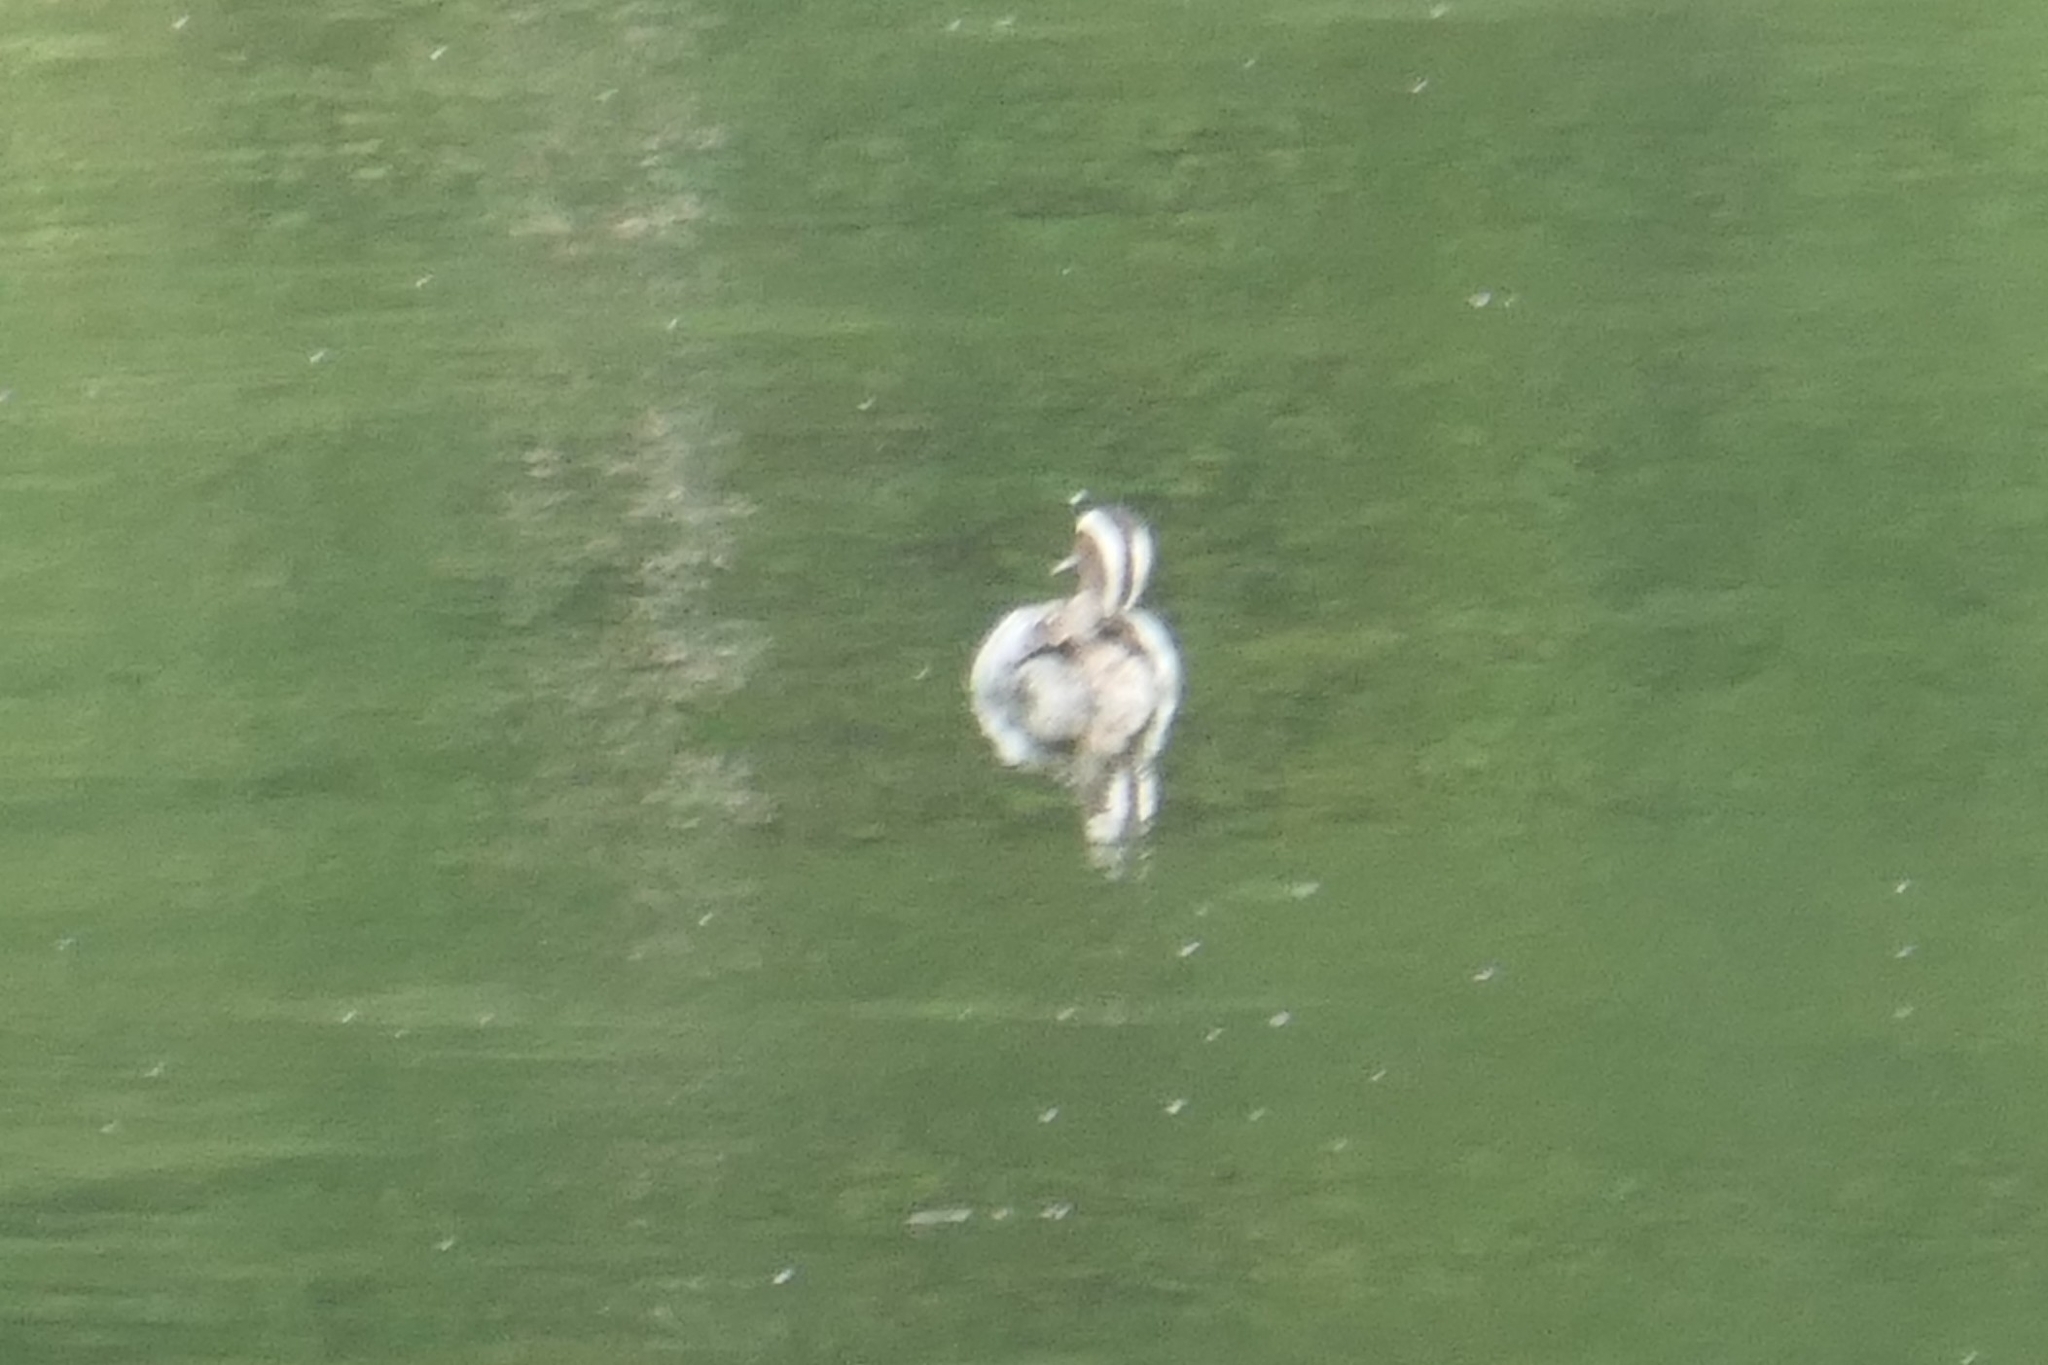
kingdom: Animalia
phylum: Chordata
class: Aves
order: Anseriformes
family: Anatidae
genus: Spatula
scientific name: Spatula querquedula
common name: Garganey
